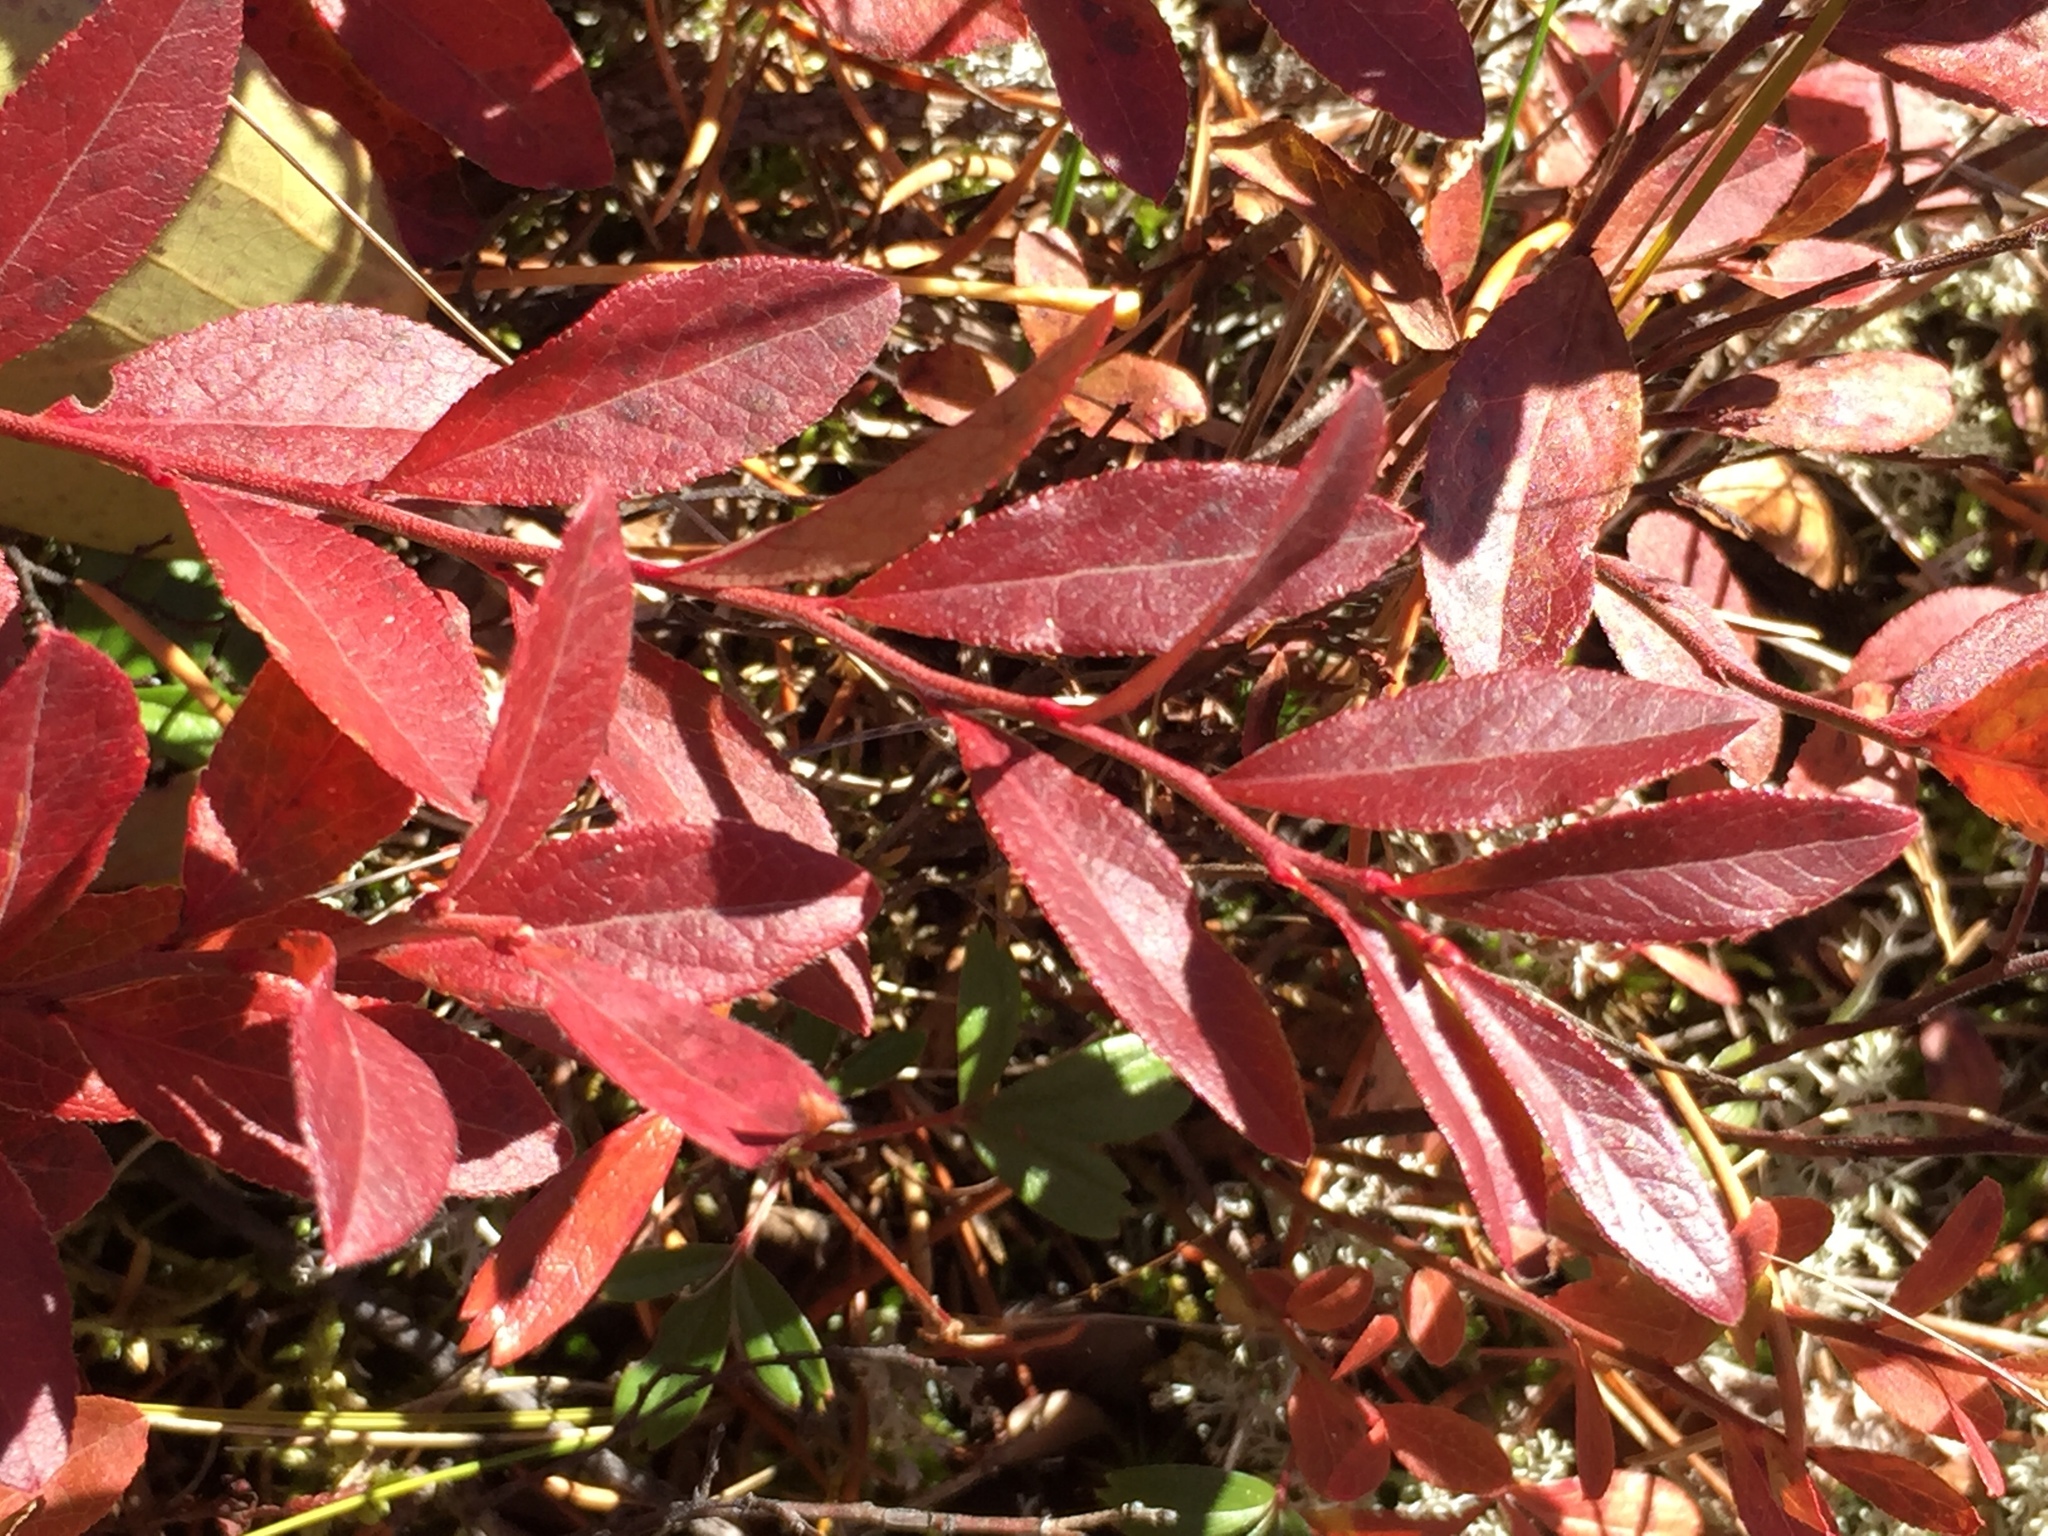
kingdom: Plantae
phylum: Tracheophyta
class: Magnoliopsida
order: Ericales
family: Ericaceae
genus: Vaccinium
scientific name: Vaccinium angustifolium
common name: Early lowbush blueberry
